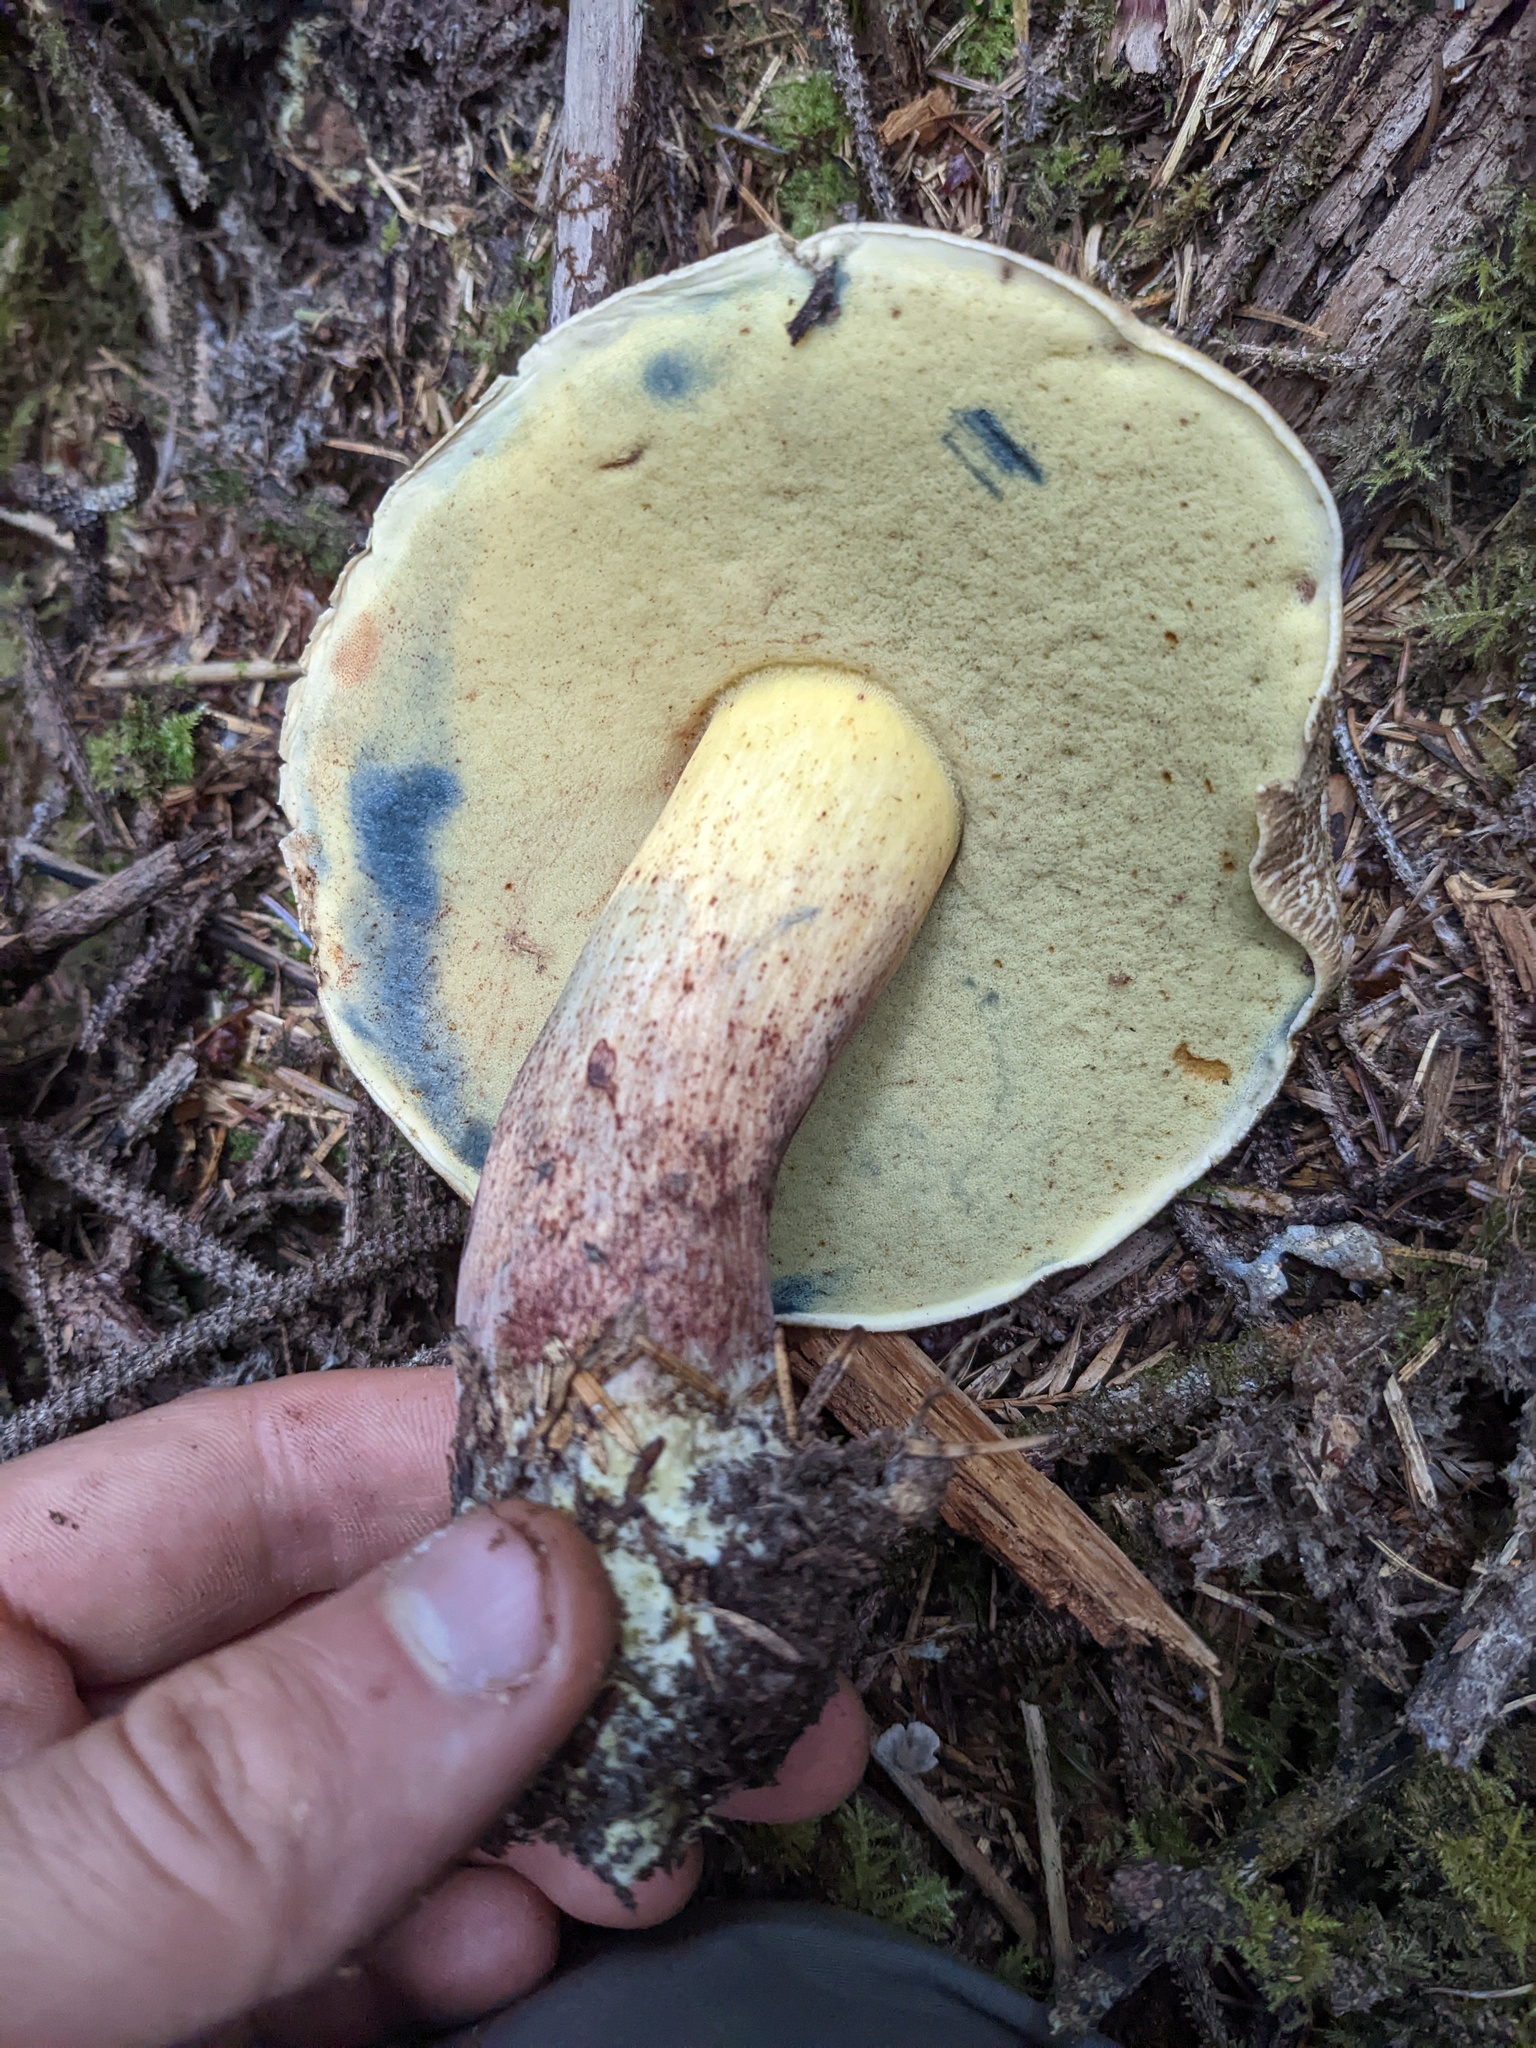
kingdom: Fungi
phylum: Basidiomycota
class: Agaricomycetes
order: Boletales
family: Boletaceae
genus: Caloboletus
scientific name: Caloboletus rubripes
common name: Red-footed bitter bolete
